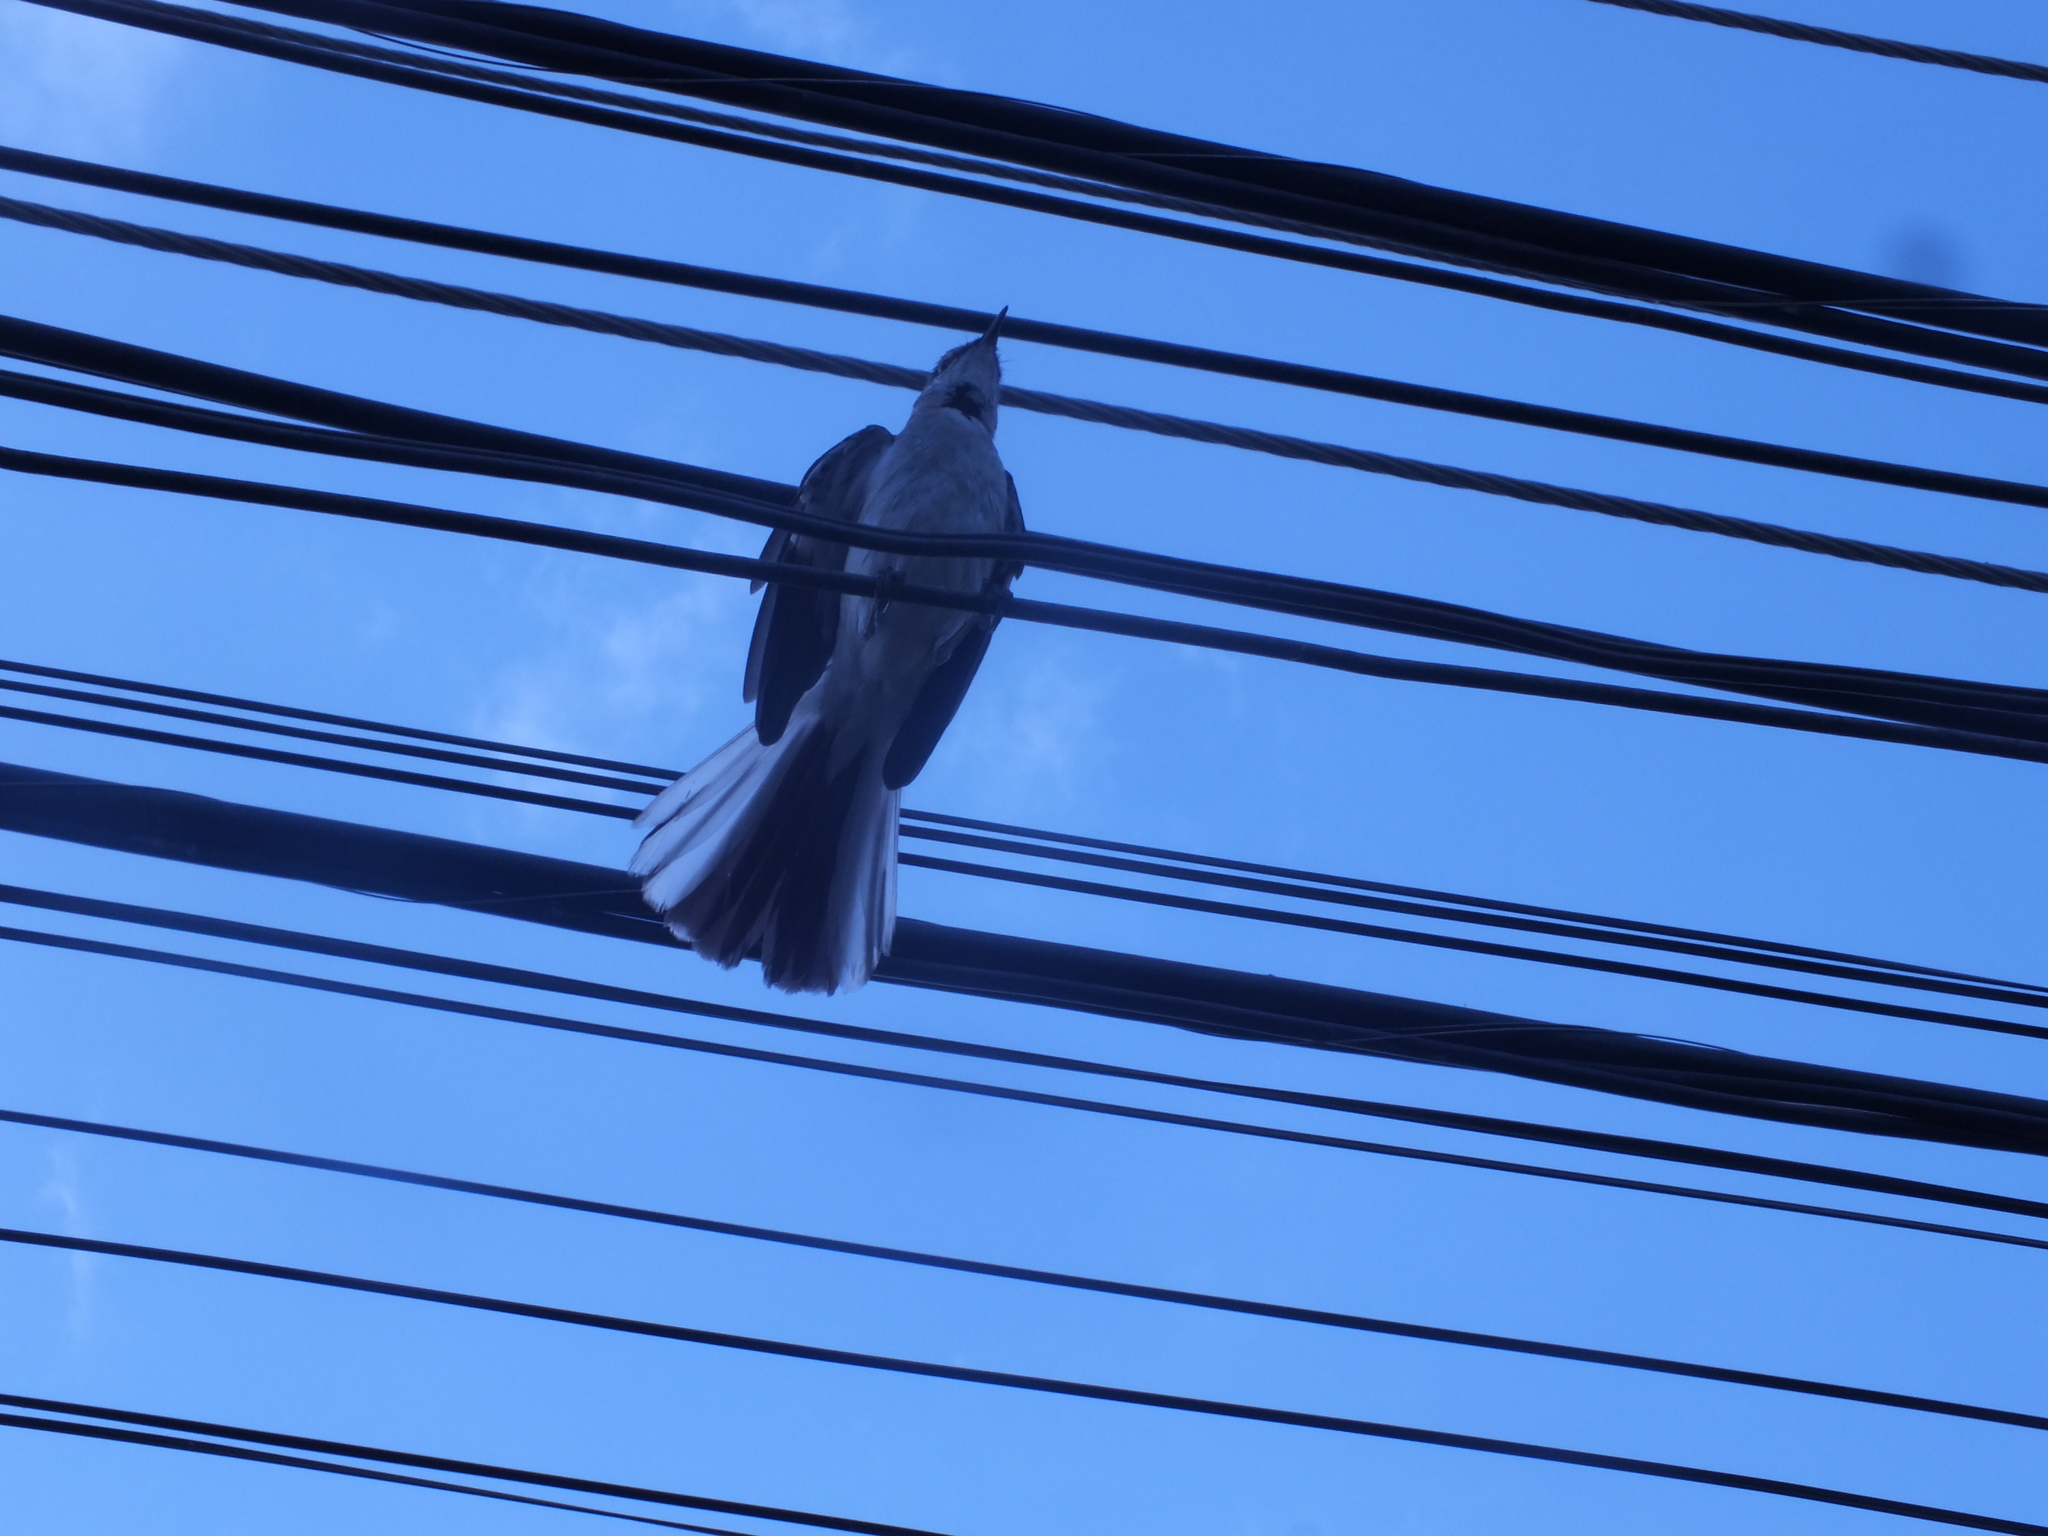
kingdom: Animalia
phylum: Chordata
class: Aves
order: Passeriformes
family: Mimidae
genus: Mimus
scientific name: Mimus polyglottos
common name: Northern mockingbird
